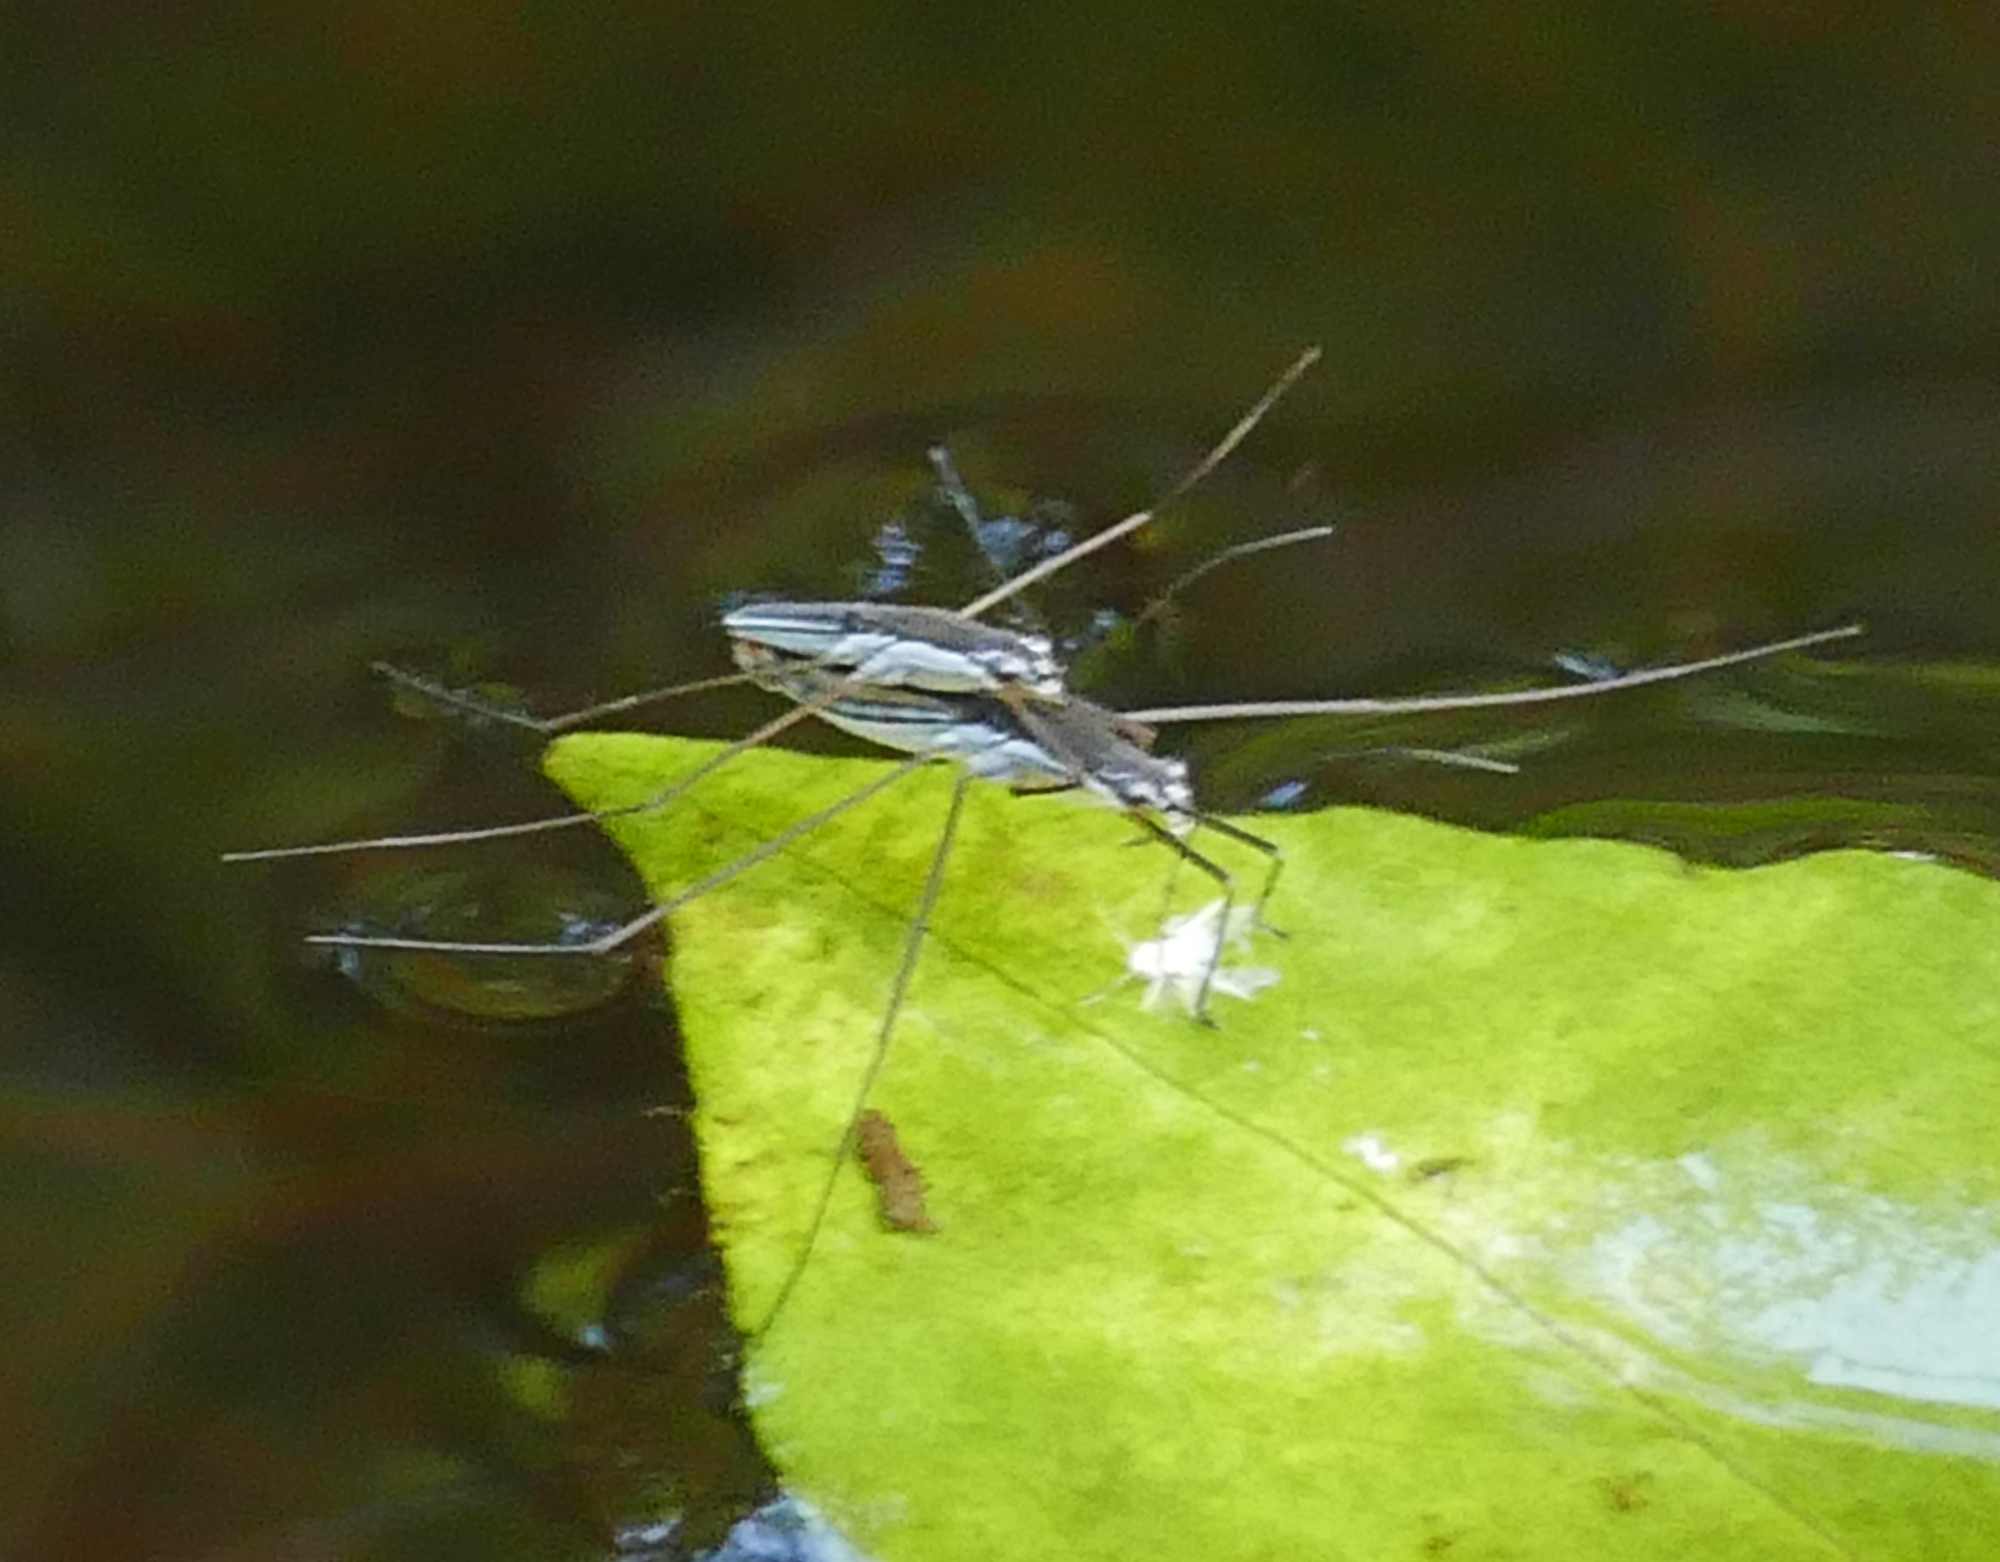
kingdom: Animalia
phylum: Arthropoda
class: Insecta
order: Hemiptera
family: Gerridae
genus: Limnoporus
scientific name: Limnoporus canaliculatus
